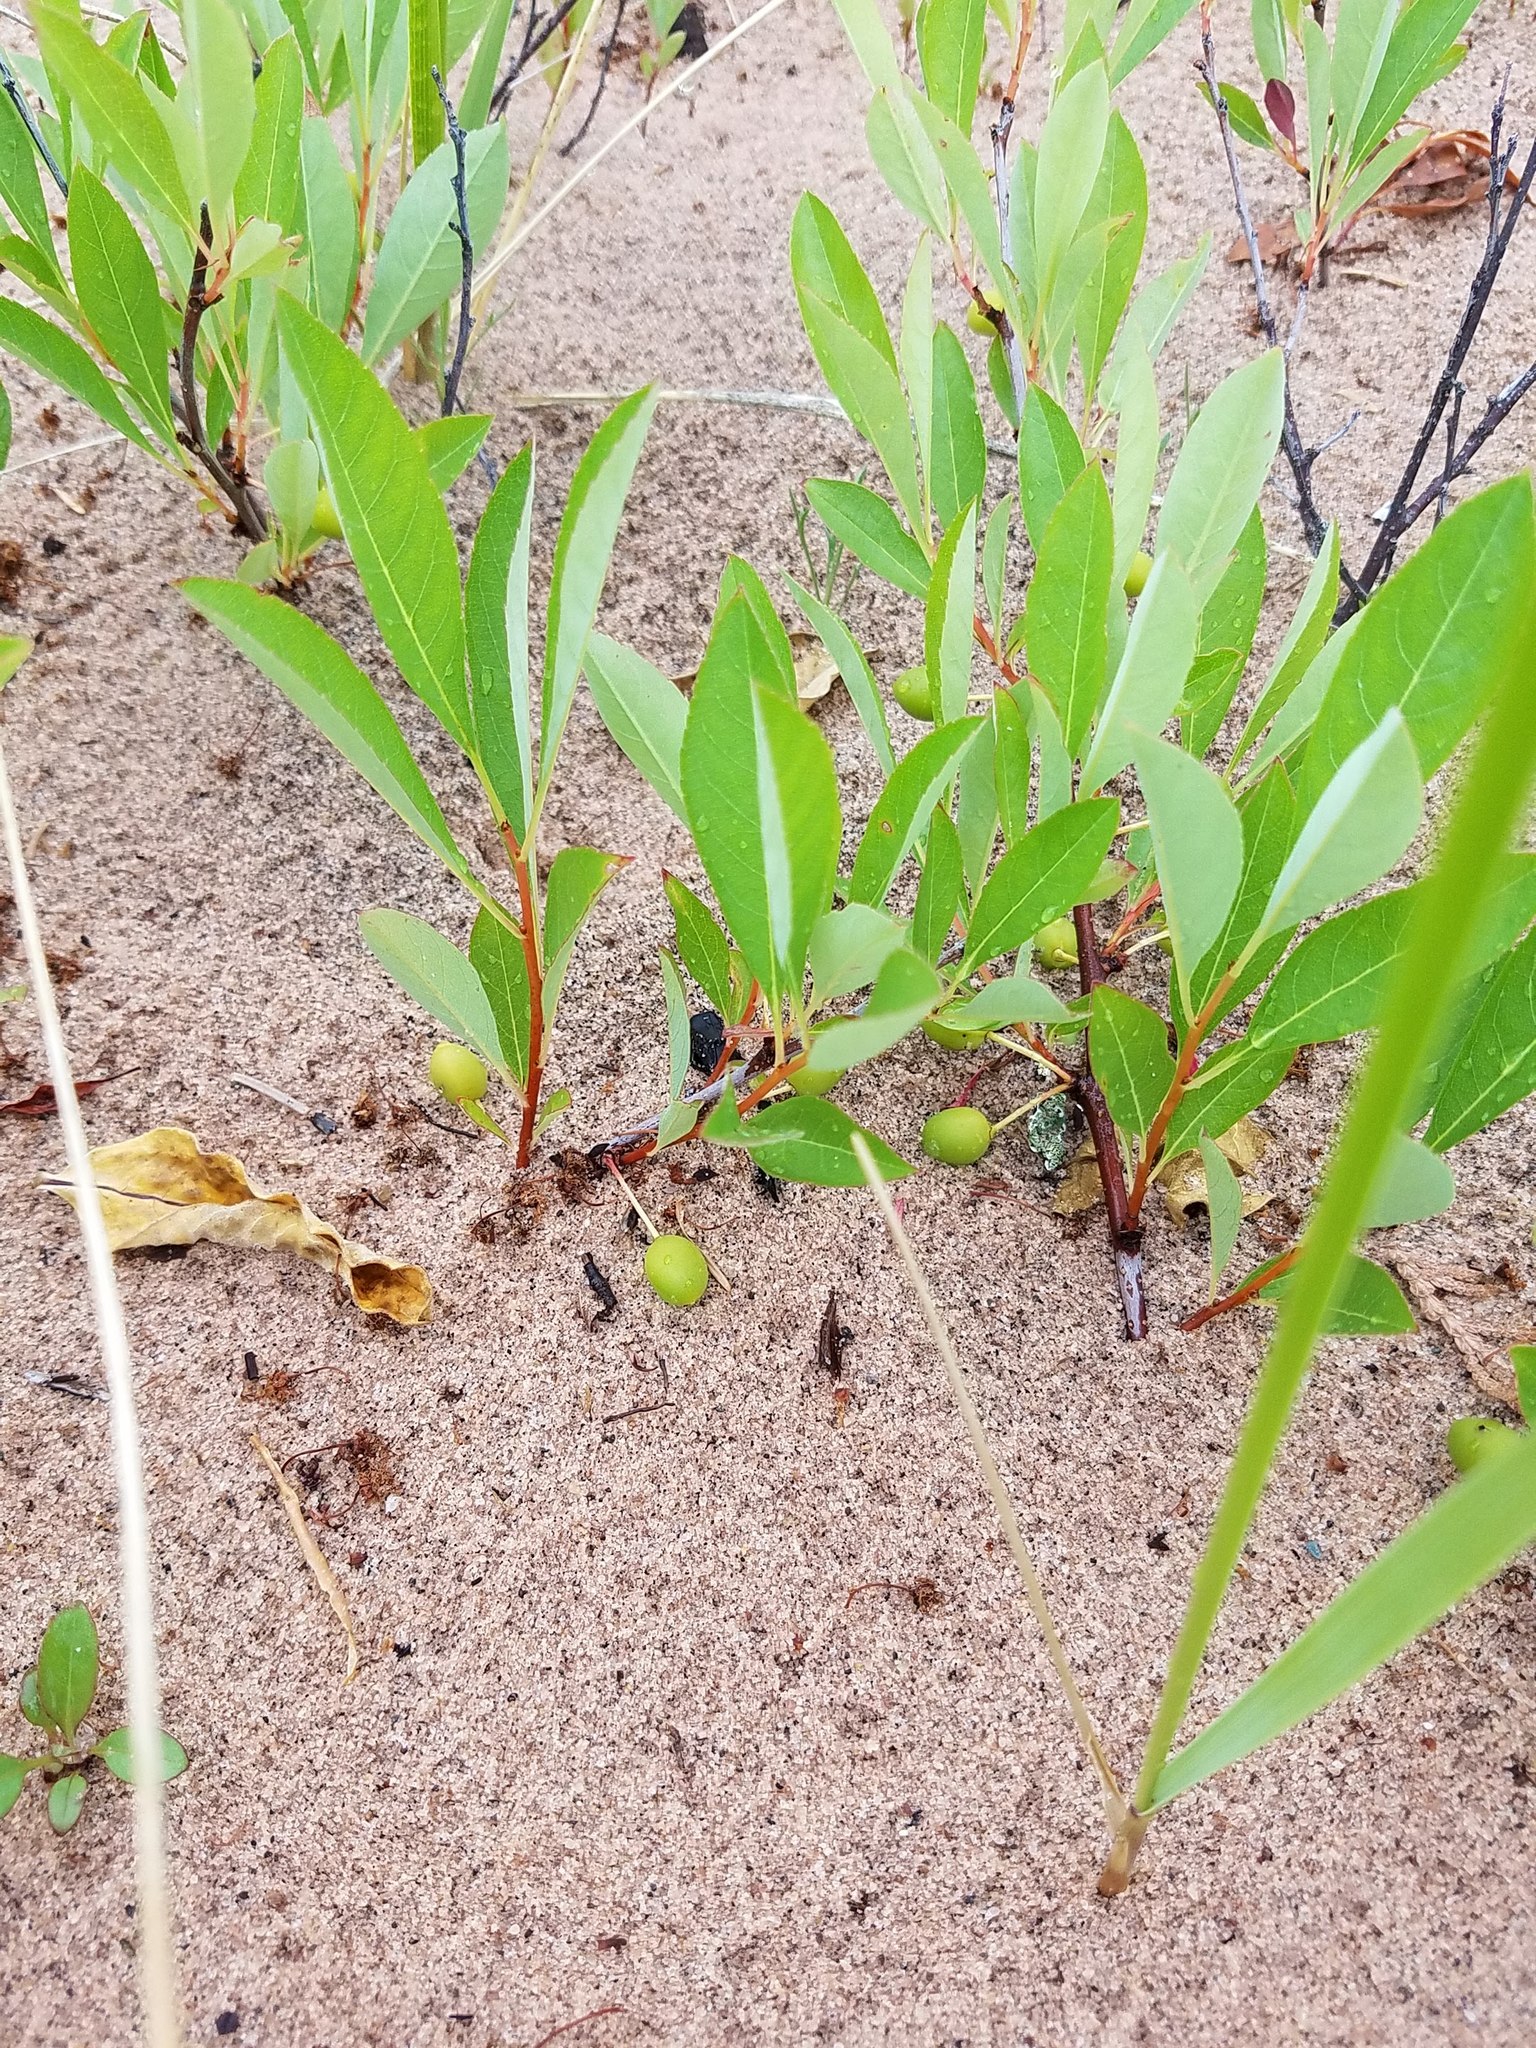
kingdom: Plantae
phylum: Tracheophyta
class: Magnoliopsida
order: Rosales
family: Rosaceae
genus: Prunus
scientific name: Prunus pumila
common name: Dwarf cherry
